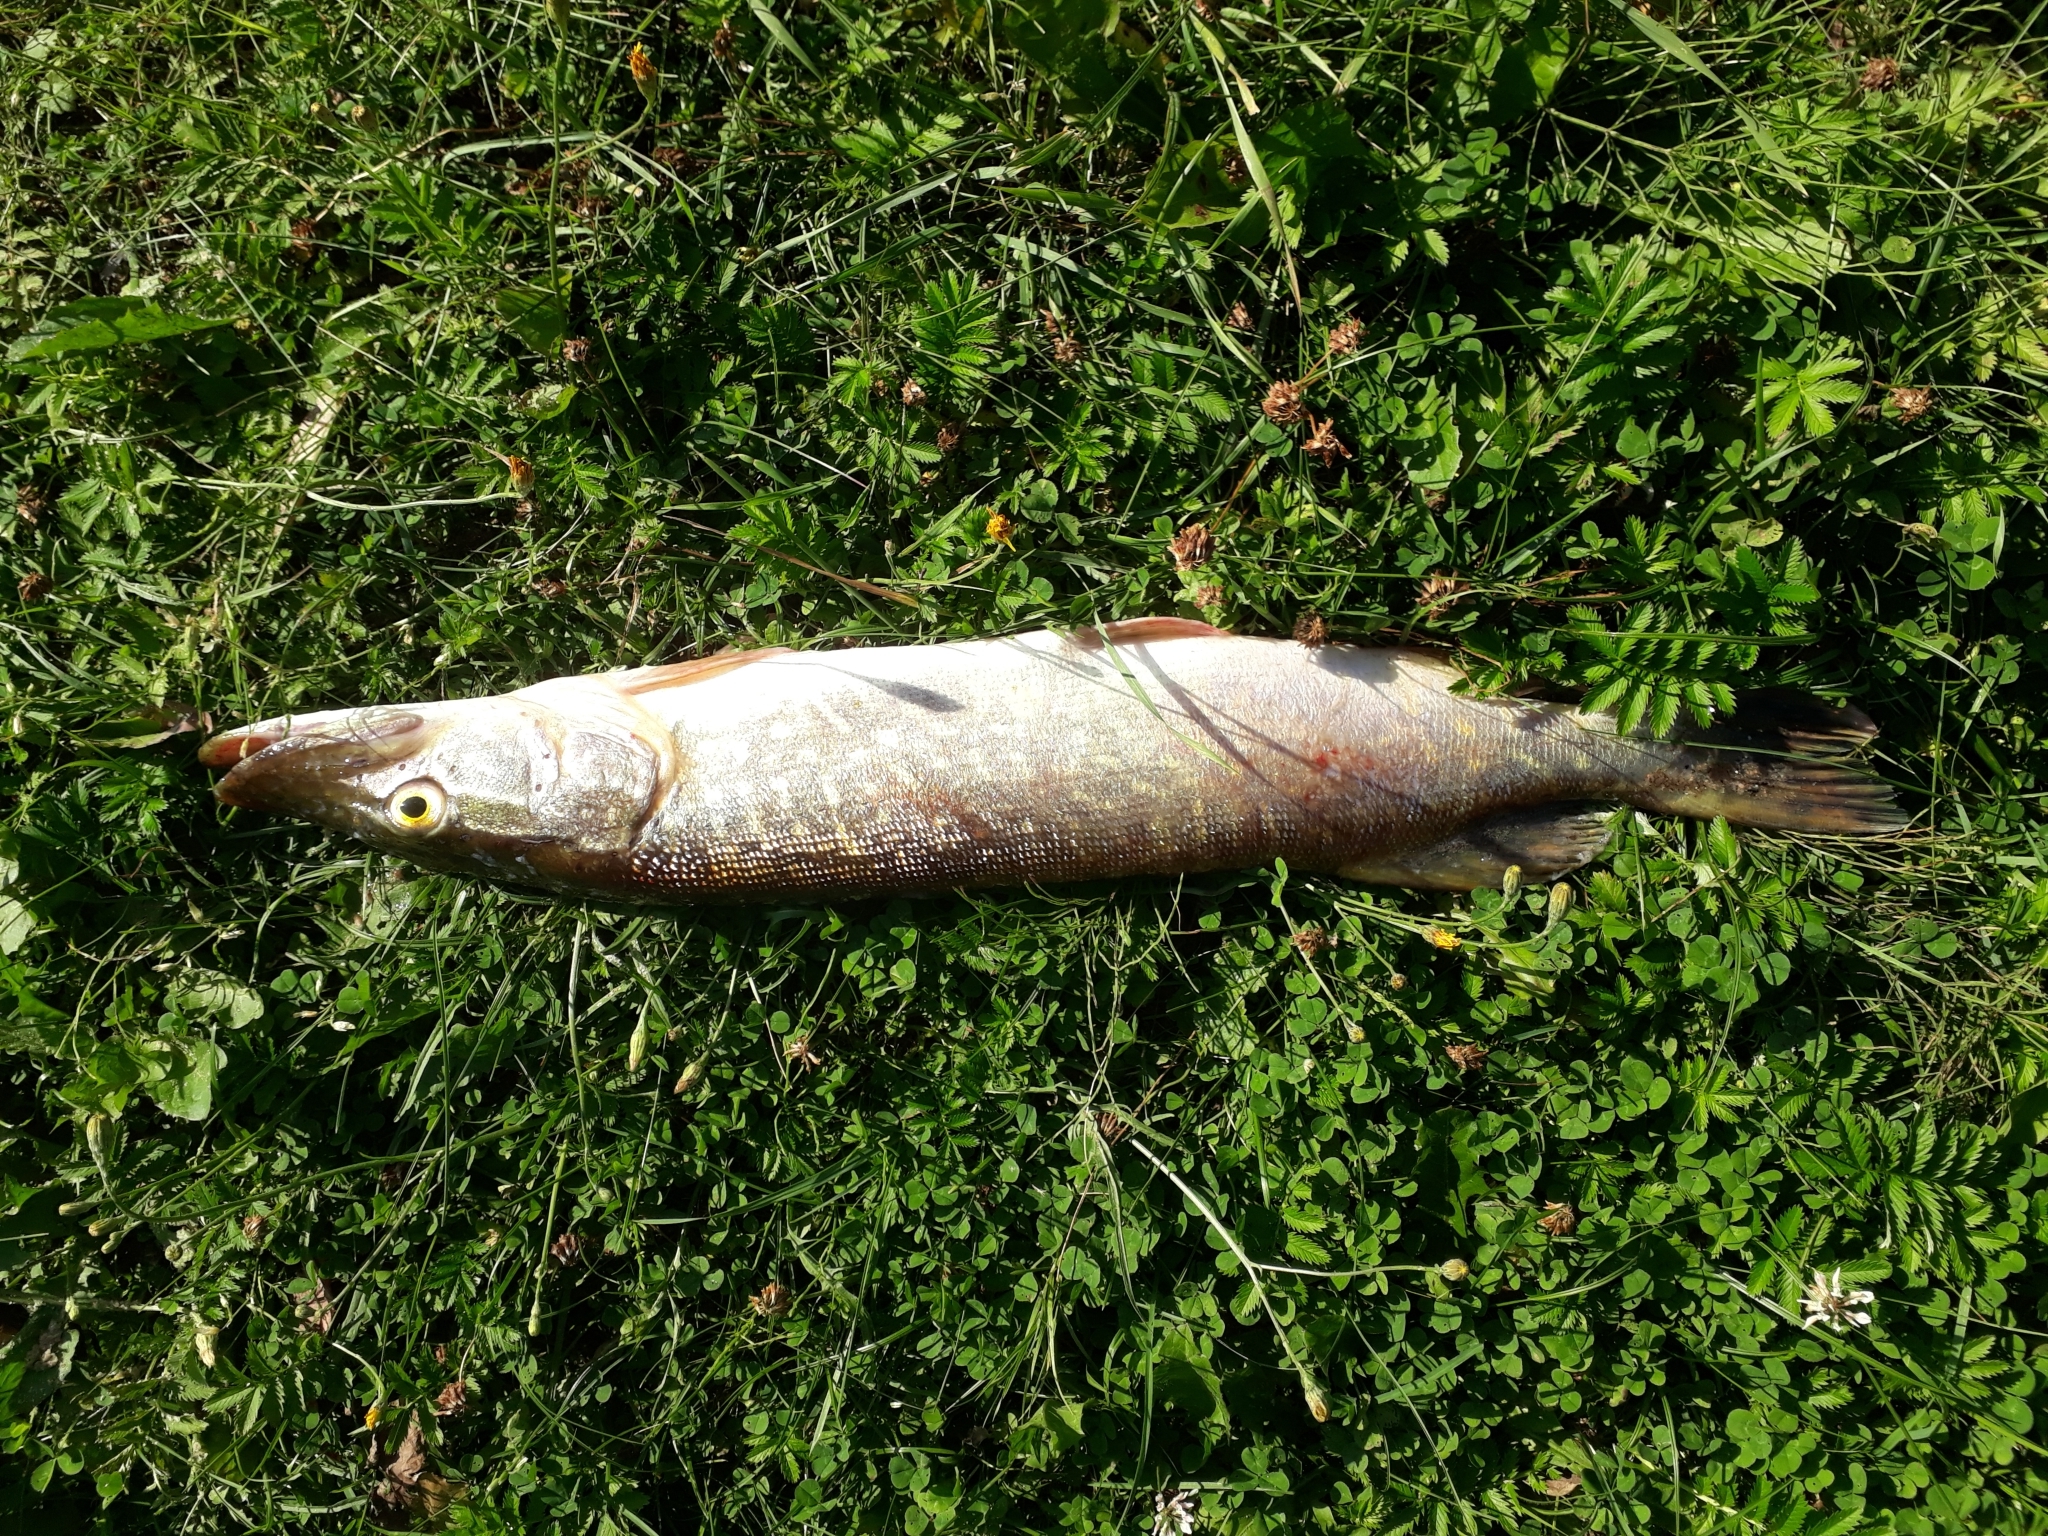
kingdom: Animalia
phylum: Chordata
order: Esociformes
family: Esocidae
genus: Esox
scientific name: Esox lucius
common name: Northern pike
